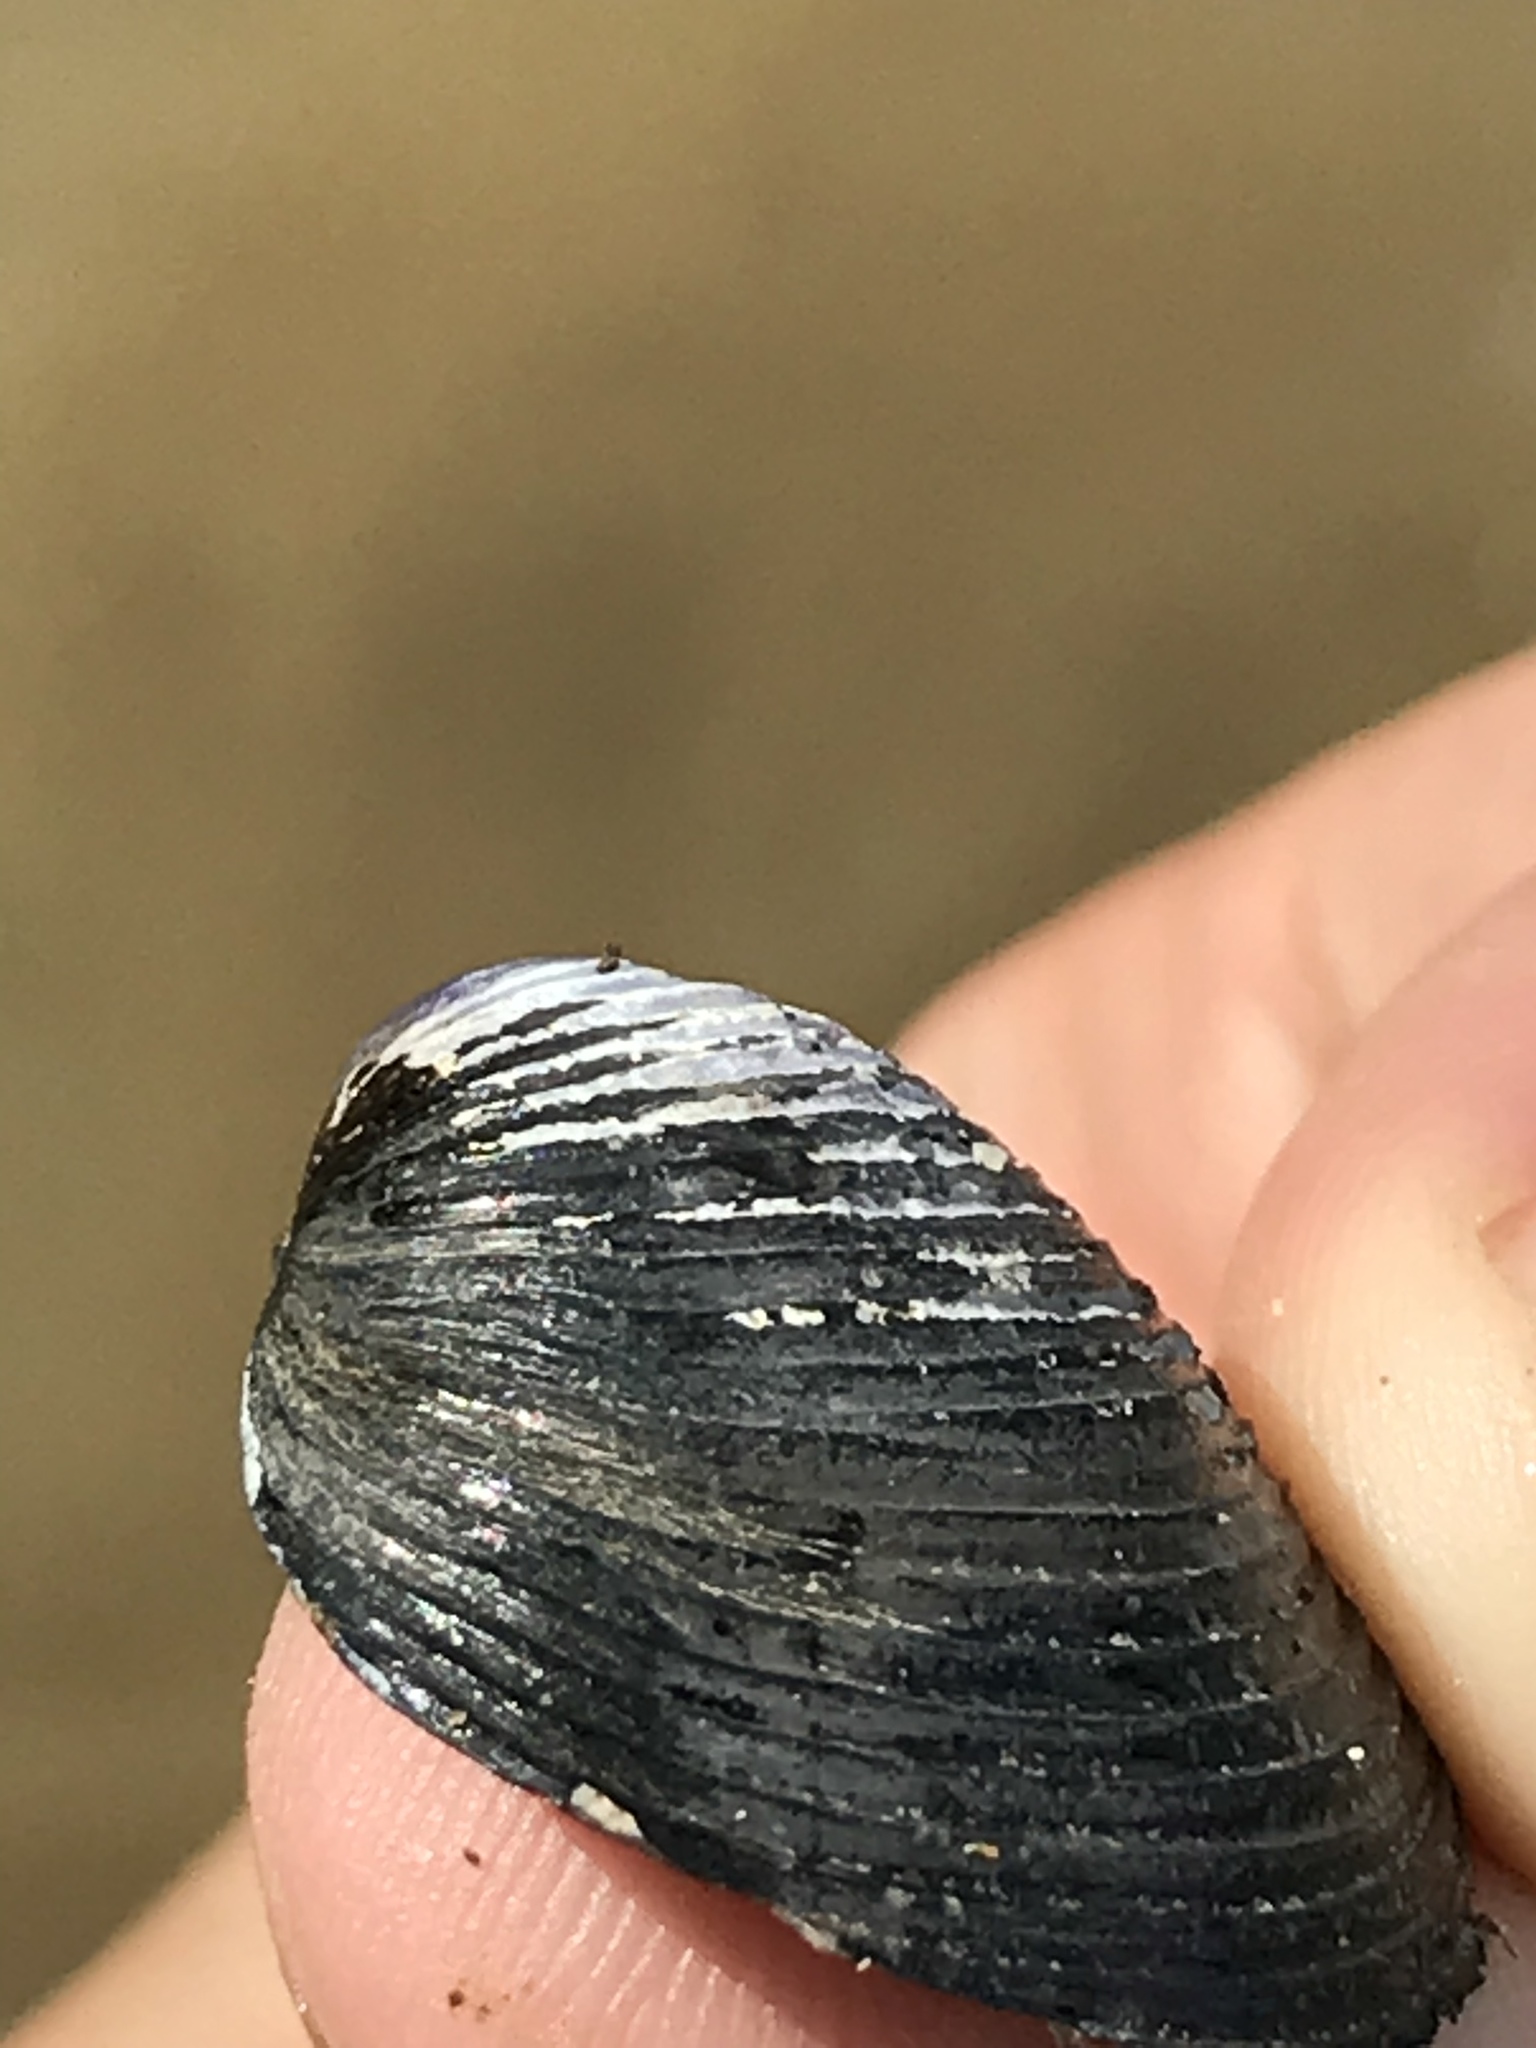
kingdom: Animalia
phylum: Mollusca
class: Bivalvia
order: Venerida
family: Cyrenidae
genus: Corbicula
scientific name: Corbicula fluminea
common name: Asian clam
